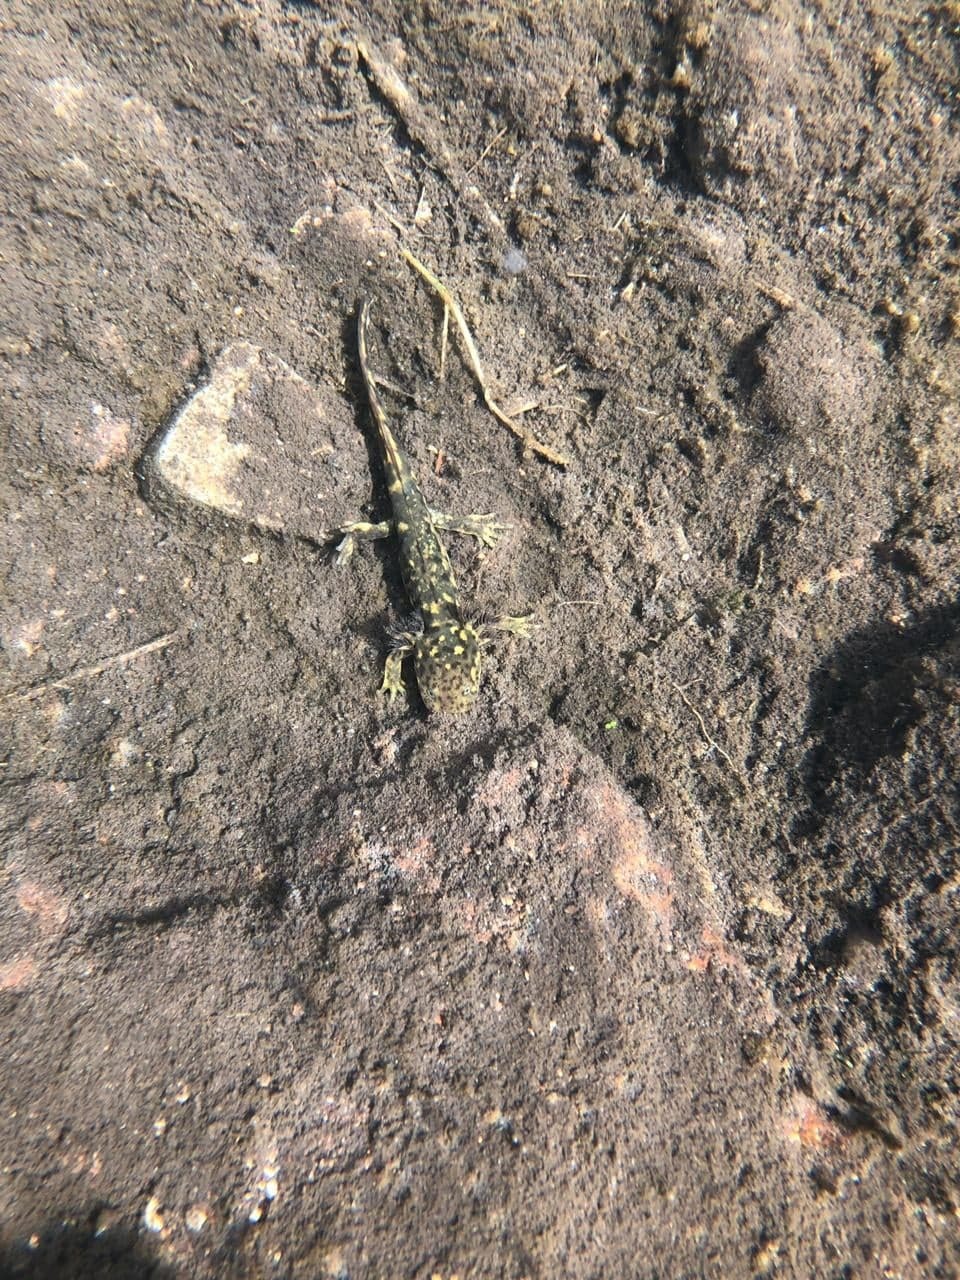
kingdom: Animalia
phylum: Chordata
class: Amphibia
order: Caudata
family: Ambystomatidae
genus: Ambystoma
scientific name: Ambystoma altamirani
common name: Mountain stream siredon
